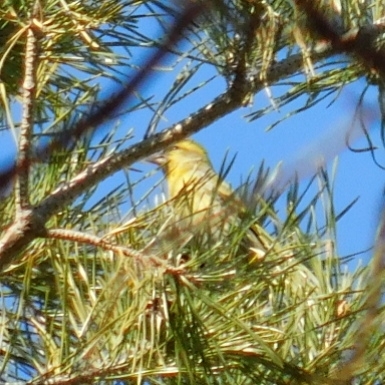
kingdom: Animalia
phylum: Chordata
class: Aves
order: Passeriformes
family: Fringillidae
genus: Spinus
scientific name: Spinus spinus
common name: Eurasian siskin
